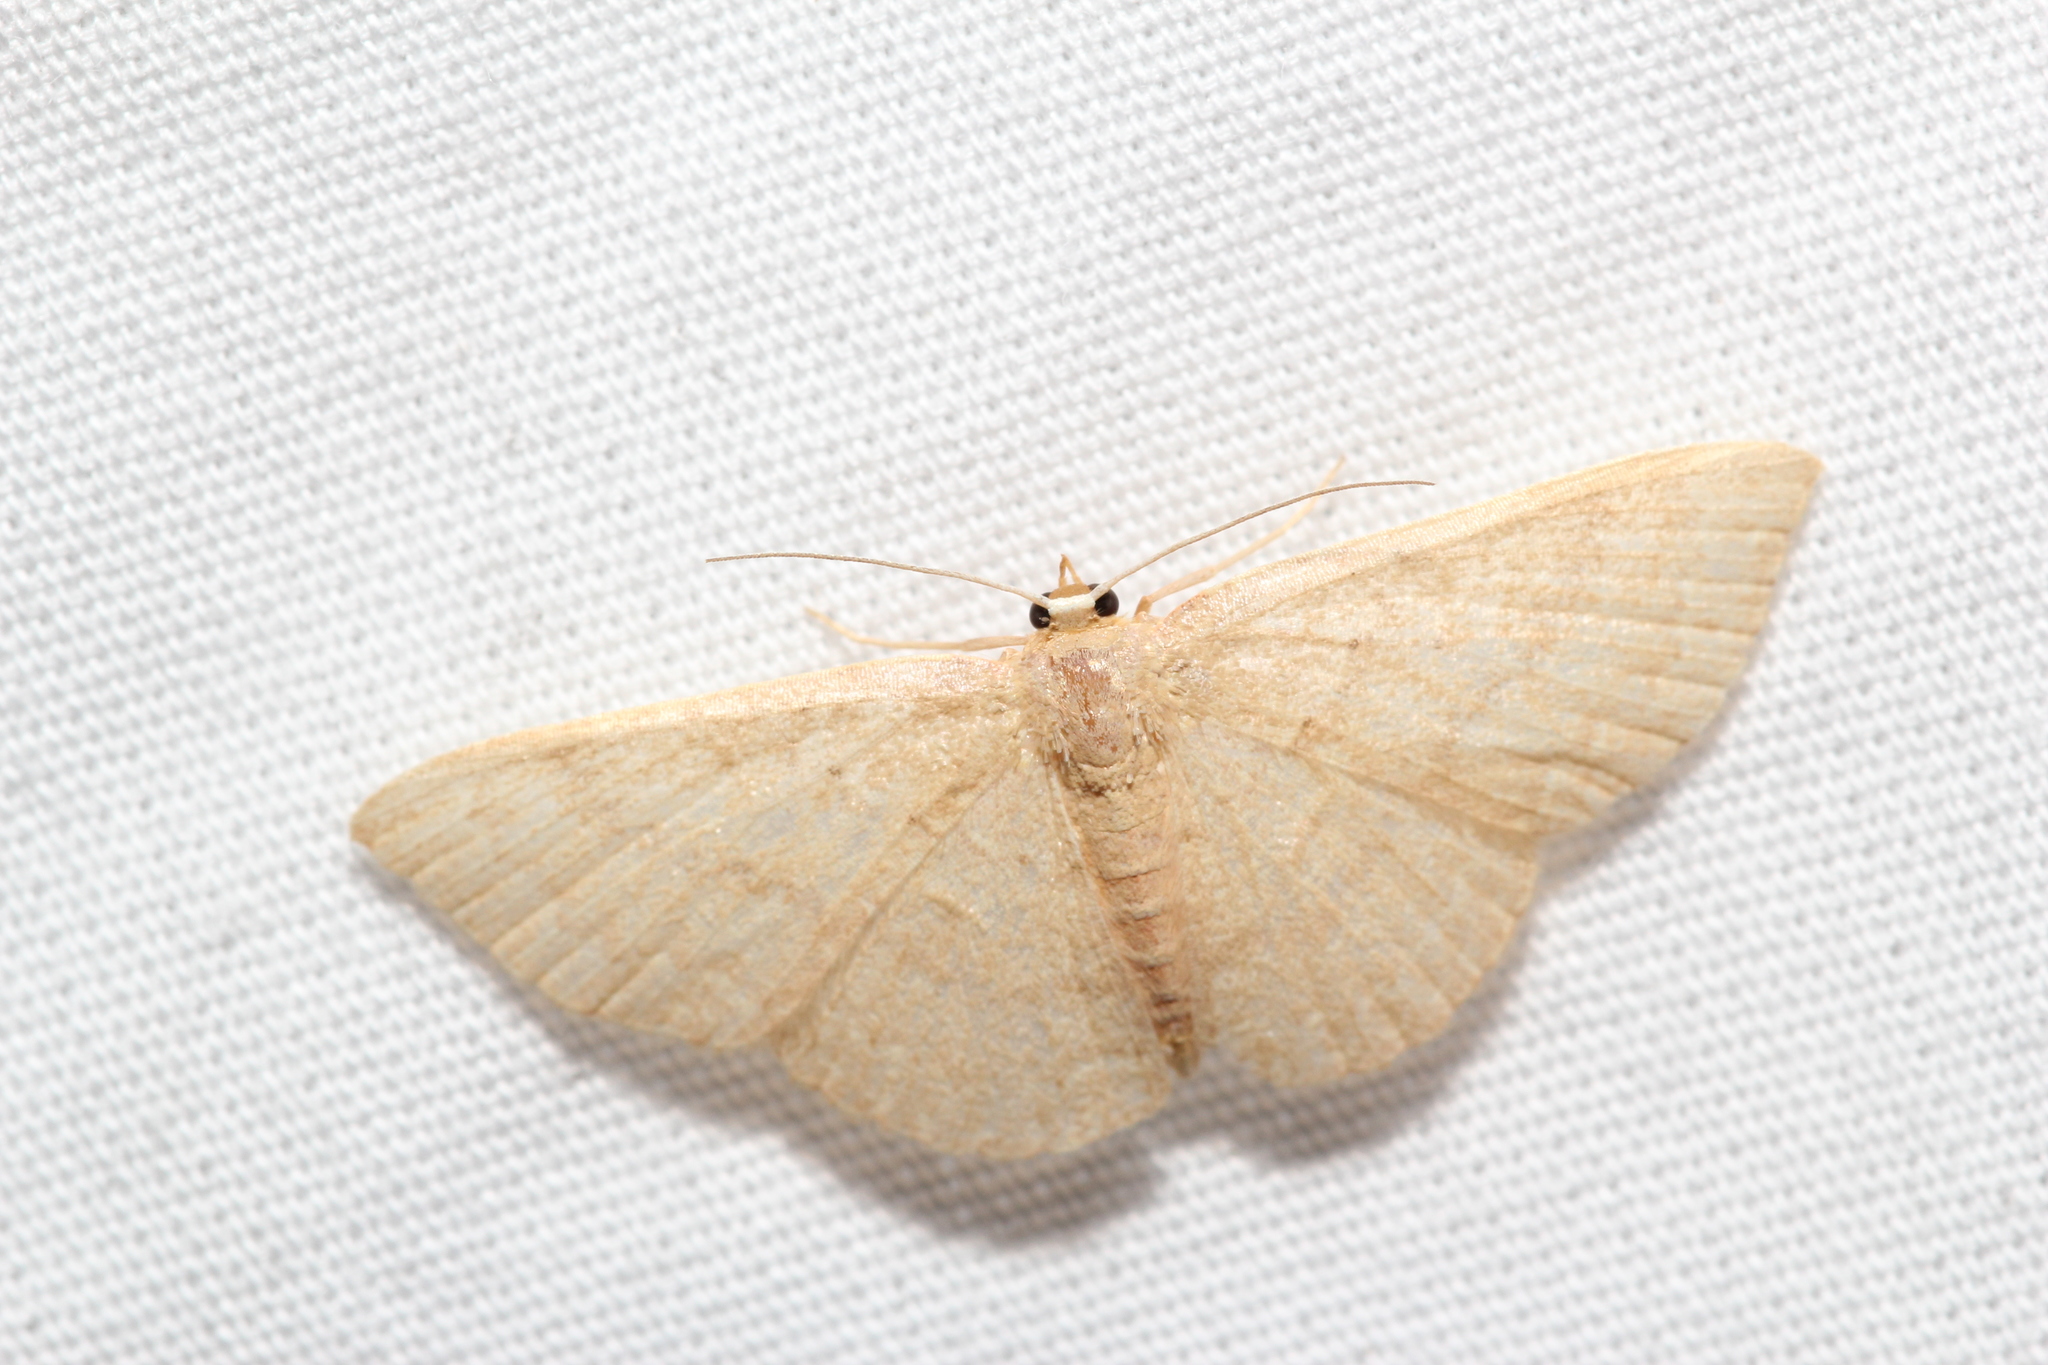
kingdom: Animalia
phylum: Arthropoda
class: Insecta
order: Lepidoptera
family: Geometridae
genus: Pleuroprucha
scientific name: Pleuroprucha insulsaria
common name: Common tan wave
